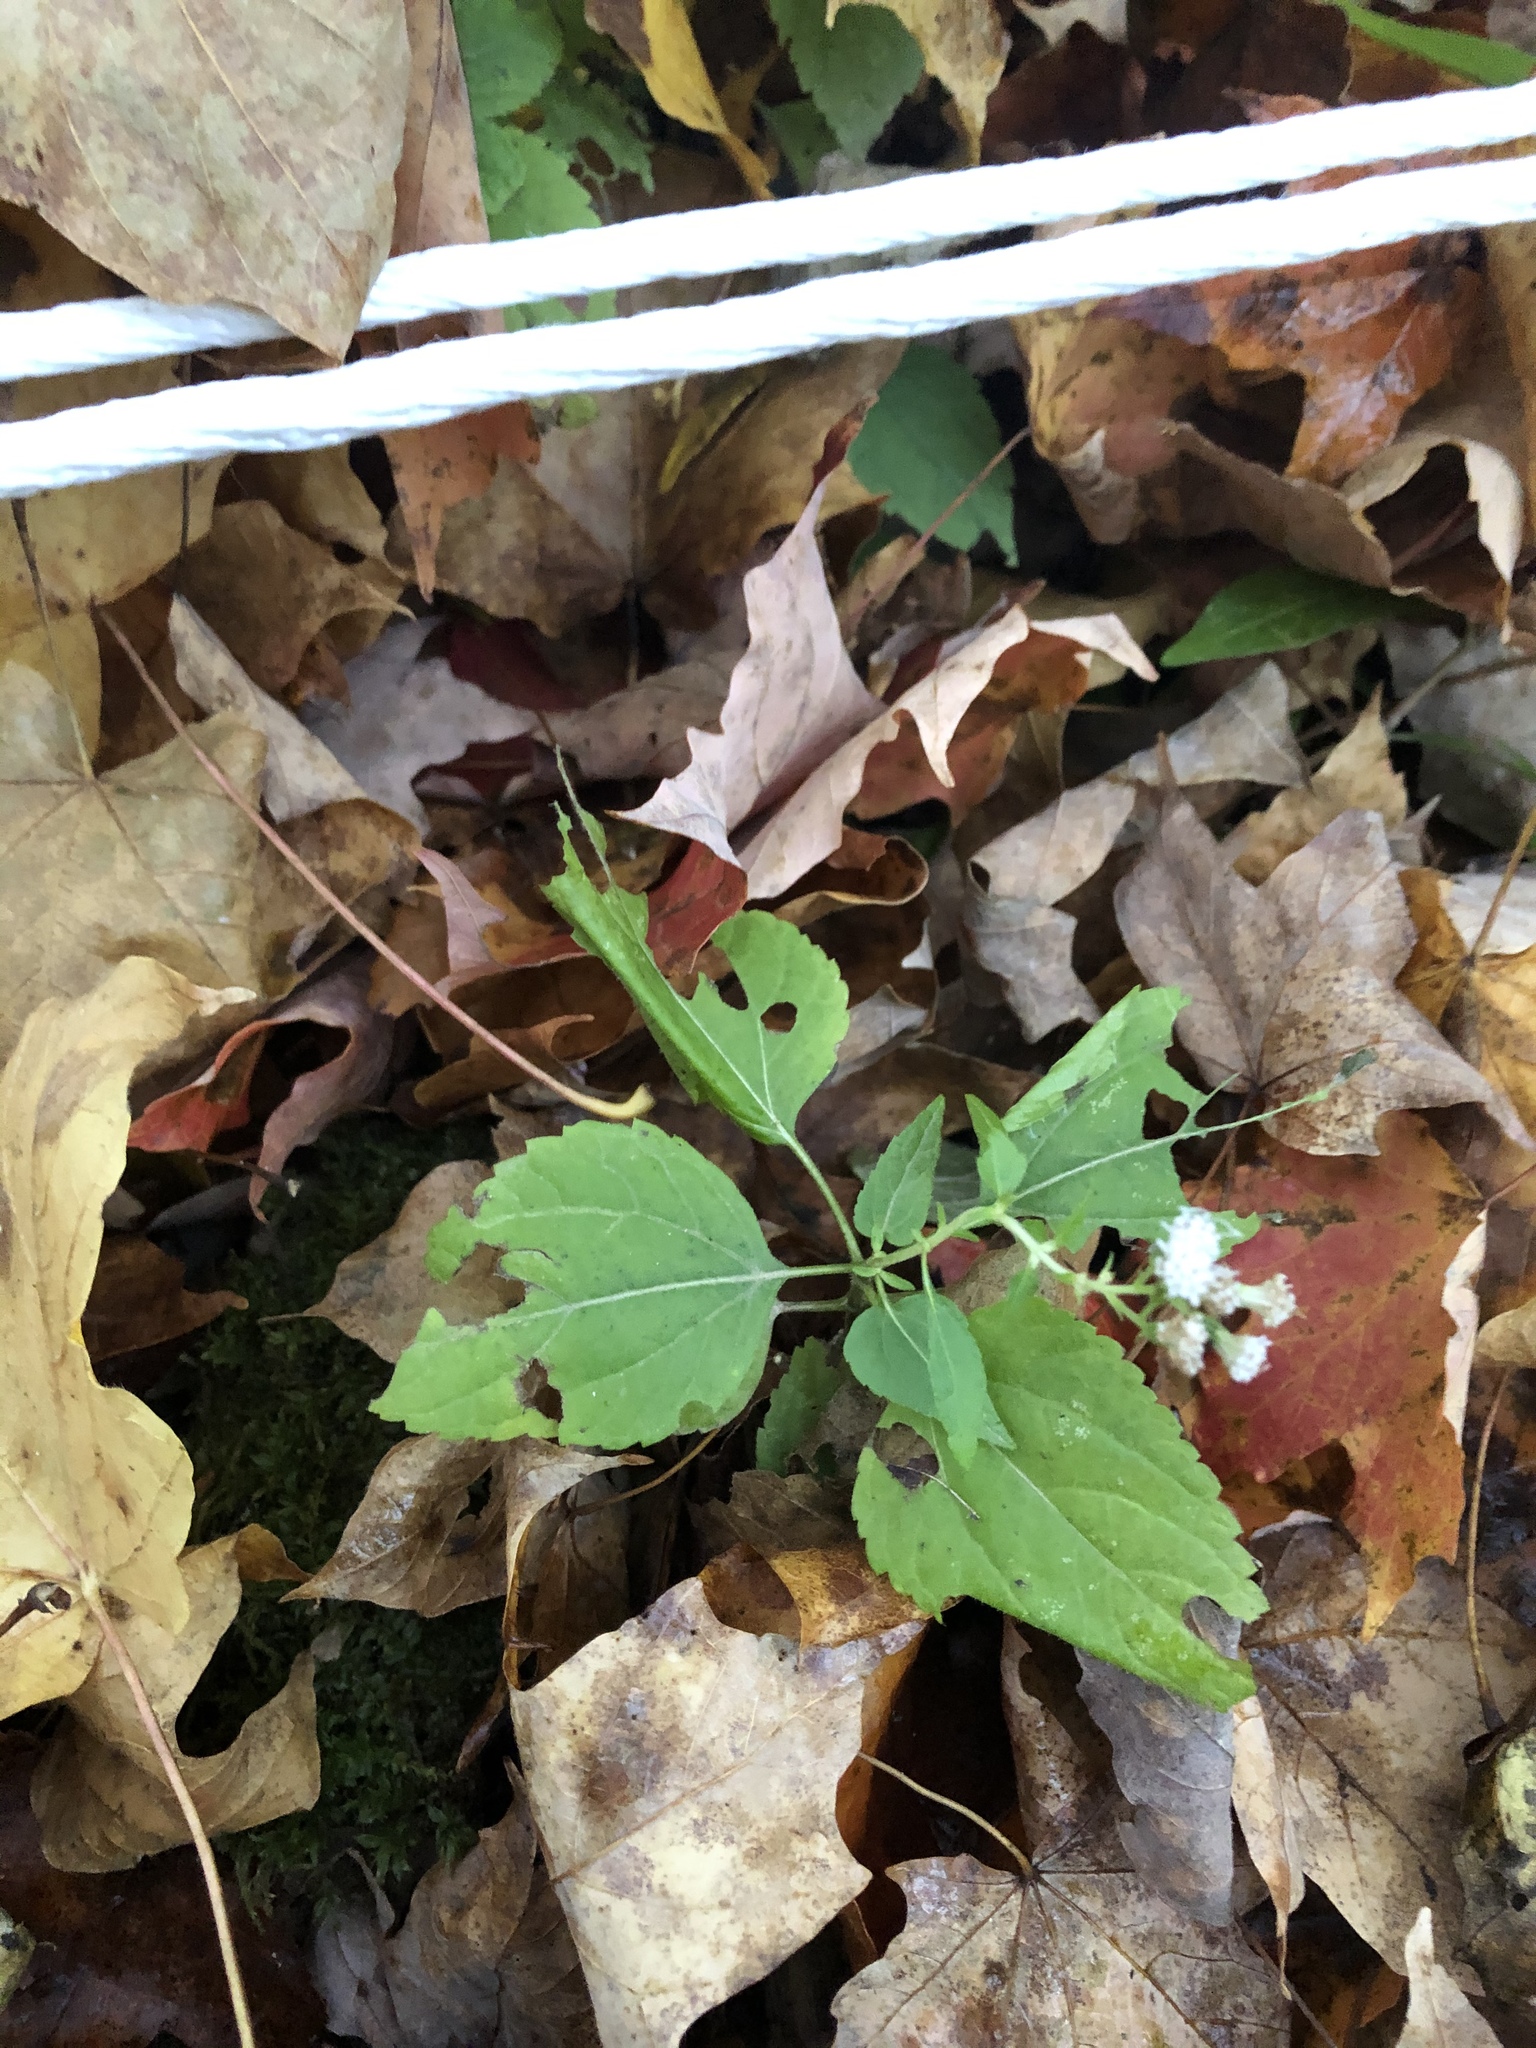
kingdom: Plantae
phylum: Tracheophyta
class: Magnoliopsida
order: Asterales
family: Asteraceae
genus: Ageratina
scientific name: Ageratina altissima
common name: White snakeroot
